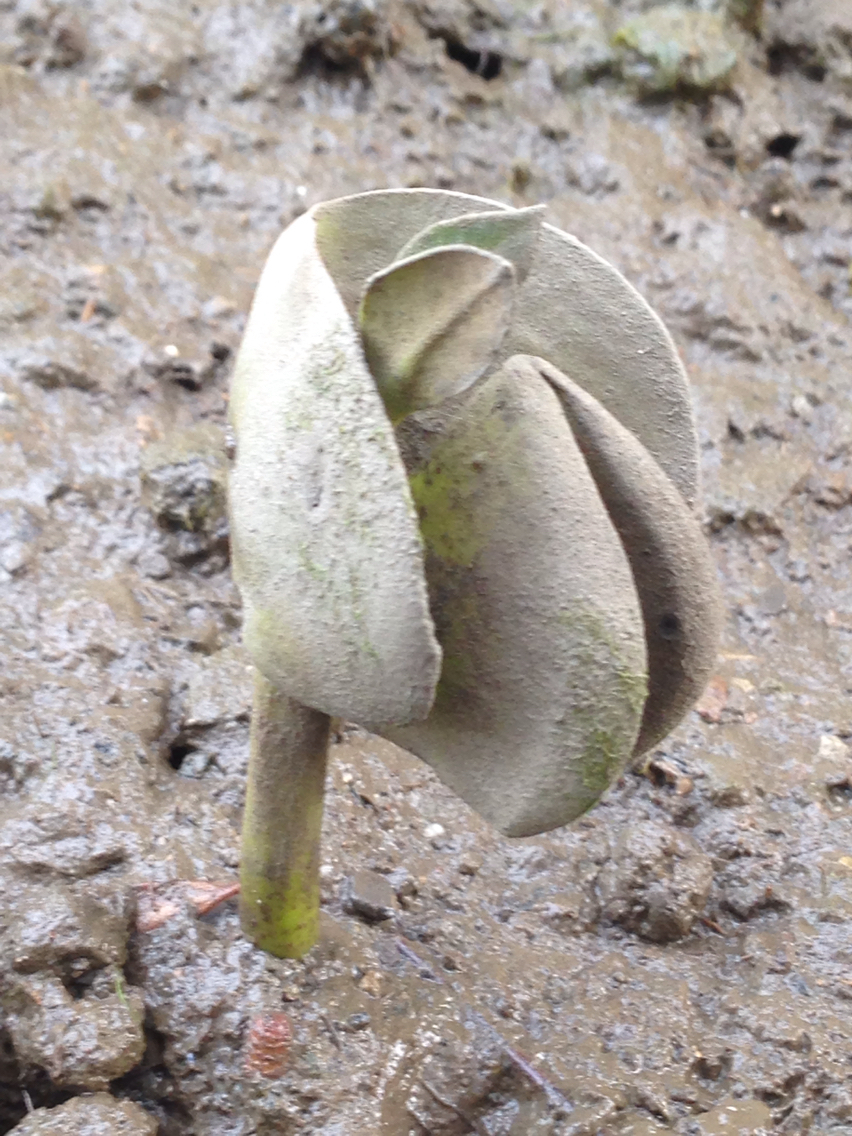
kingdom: Plantae
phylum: Tracheophyta
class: Magnoliopsida
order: Lamiales
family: Acanthaceae
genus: Avicennia
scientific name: Avicennia marina
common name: Gray mangrove
